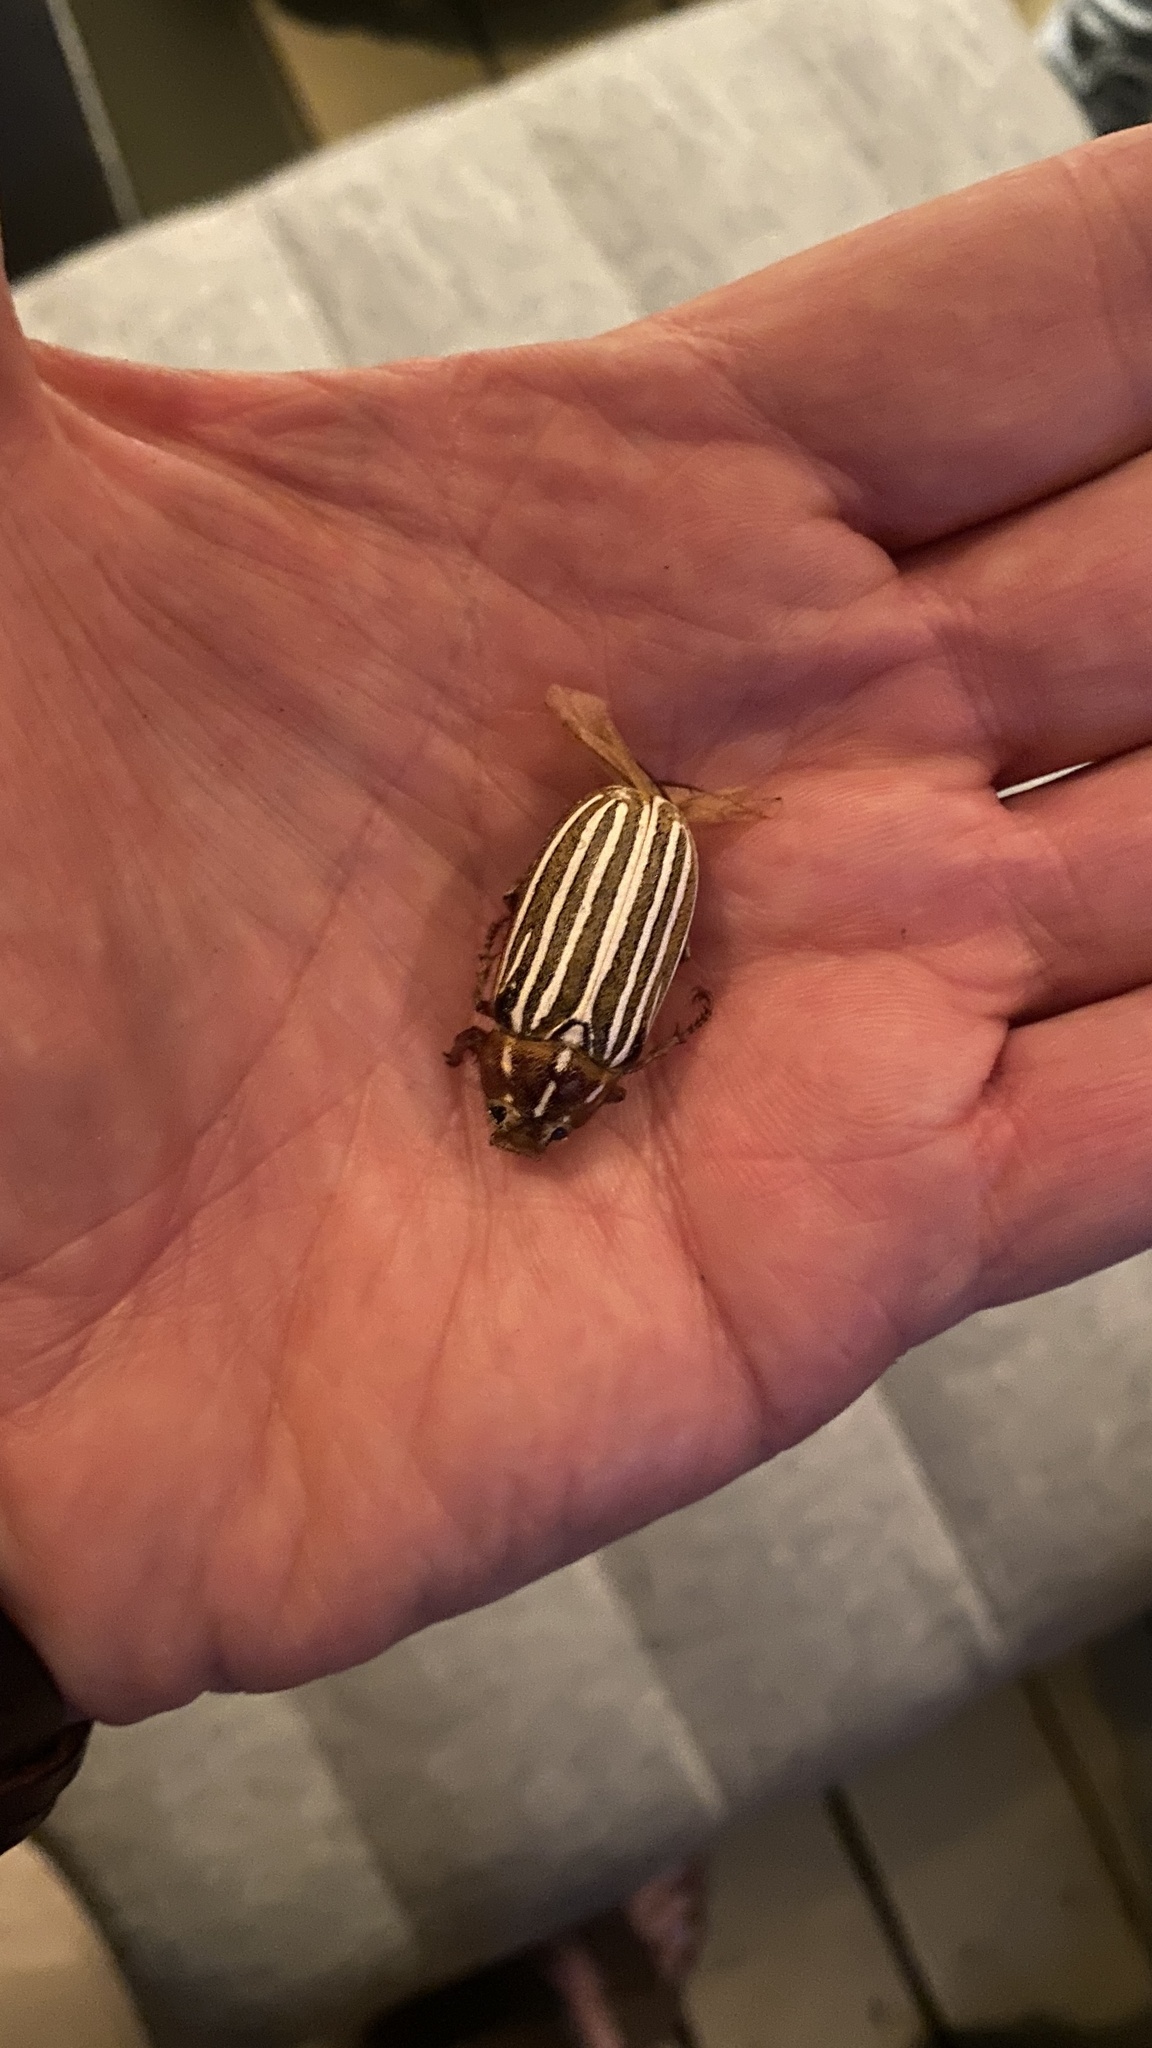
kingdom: Animalia
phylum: Arthropoda
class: Insecta
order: Coleoptera
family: Scarabaeidae
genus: Polyphylla
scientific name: Polyphylla decemlineata
